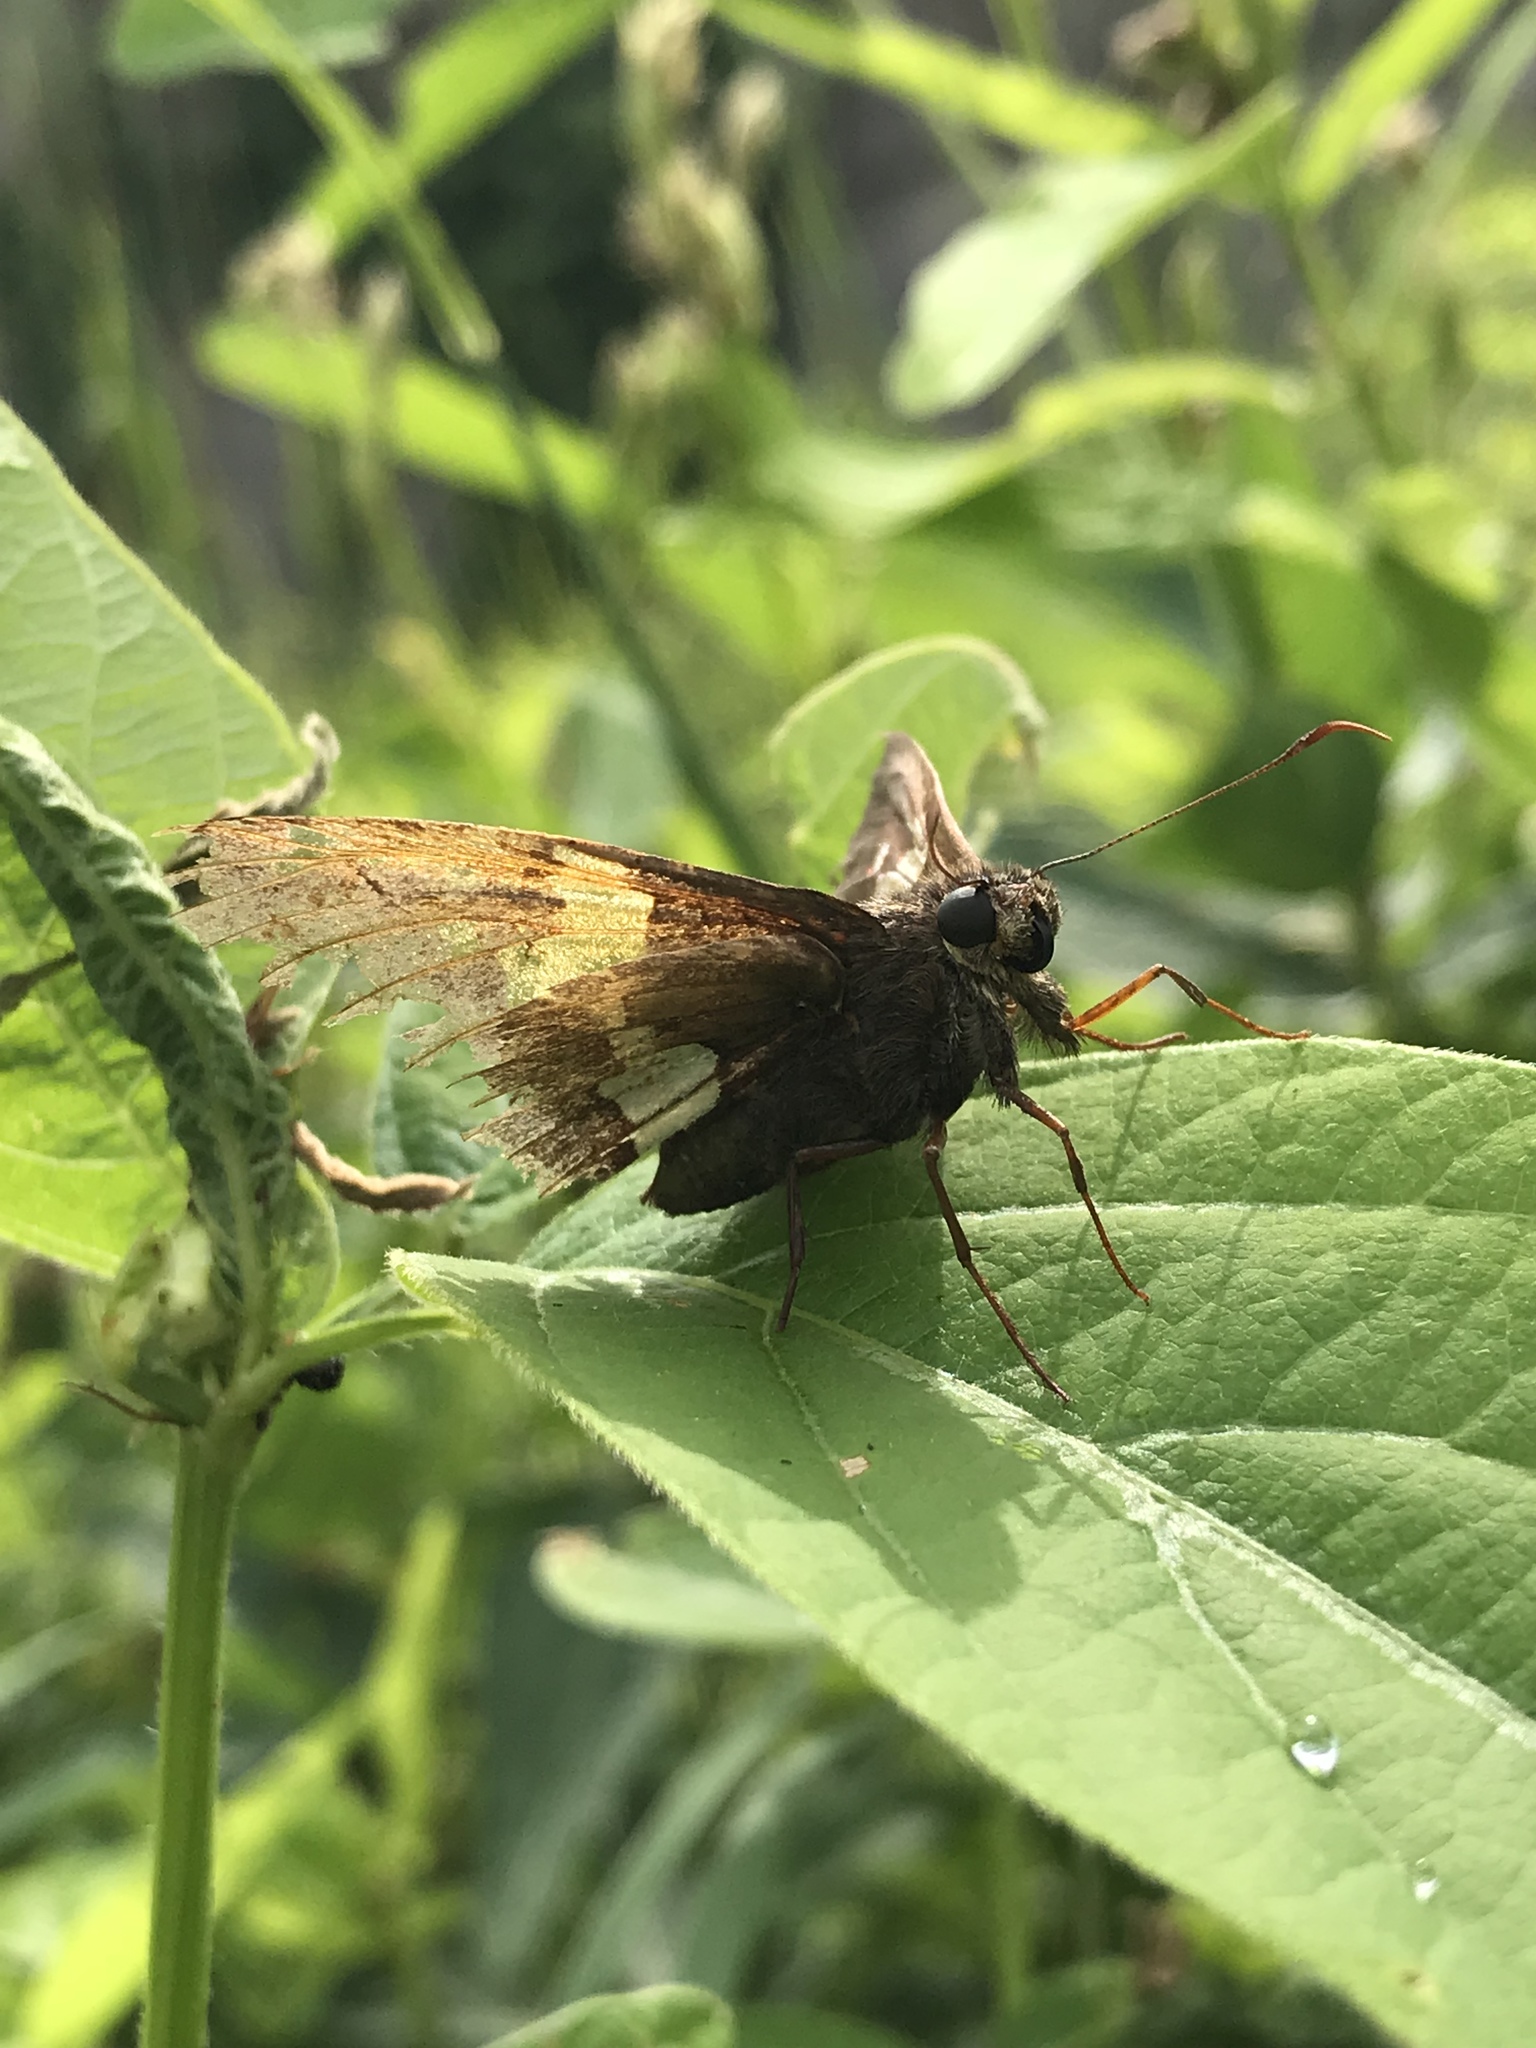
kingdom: Animalia
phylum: Arthropoda
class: Insecta
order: Lepidoptera
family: Hesperiidae
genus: Epargyreus
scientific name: Epargyreus clarus
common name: Silver-spotted skipper
